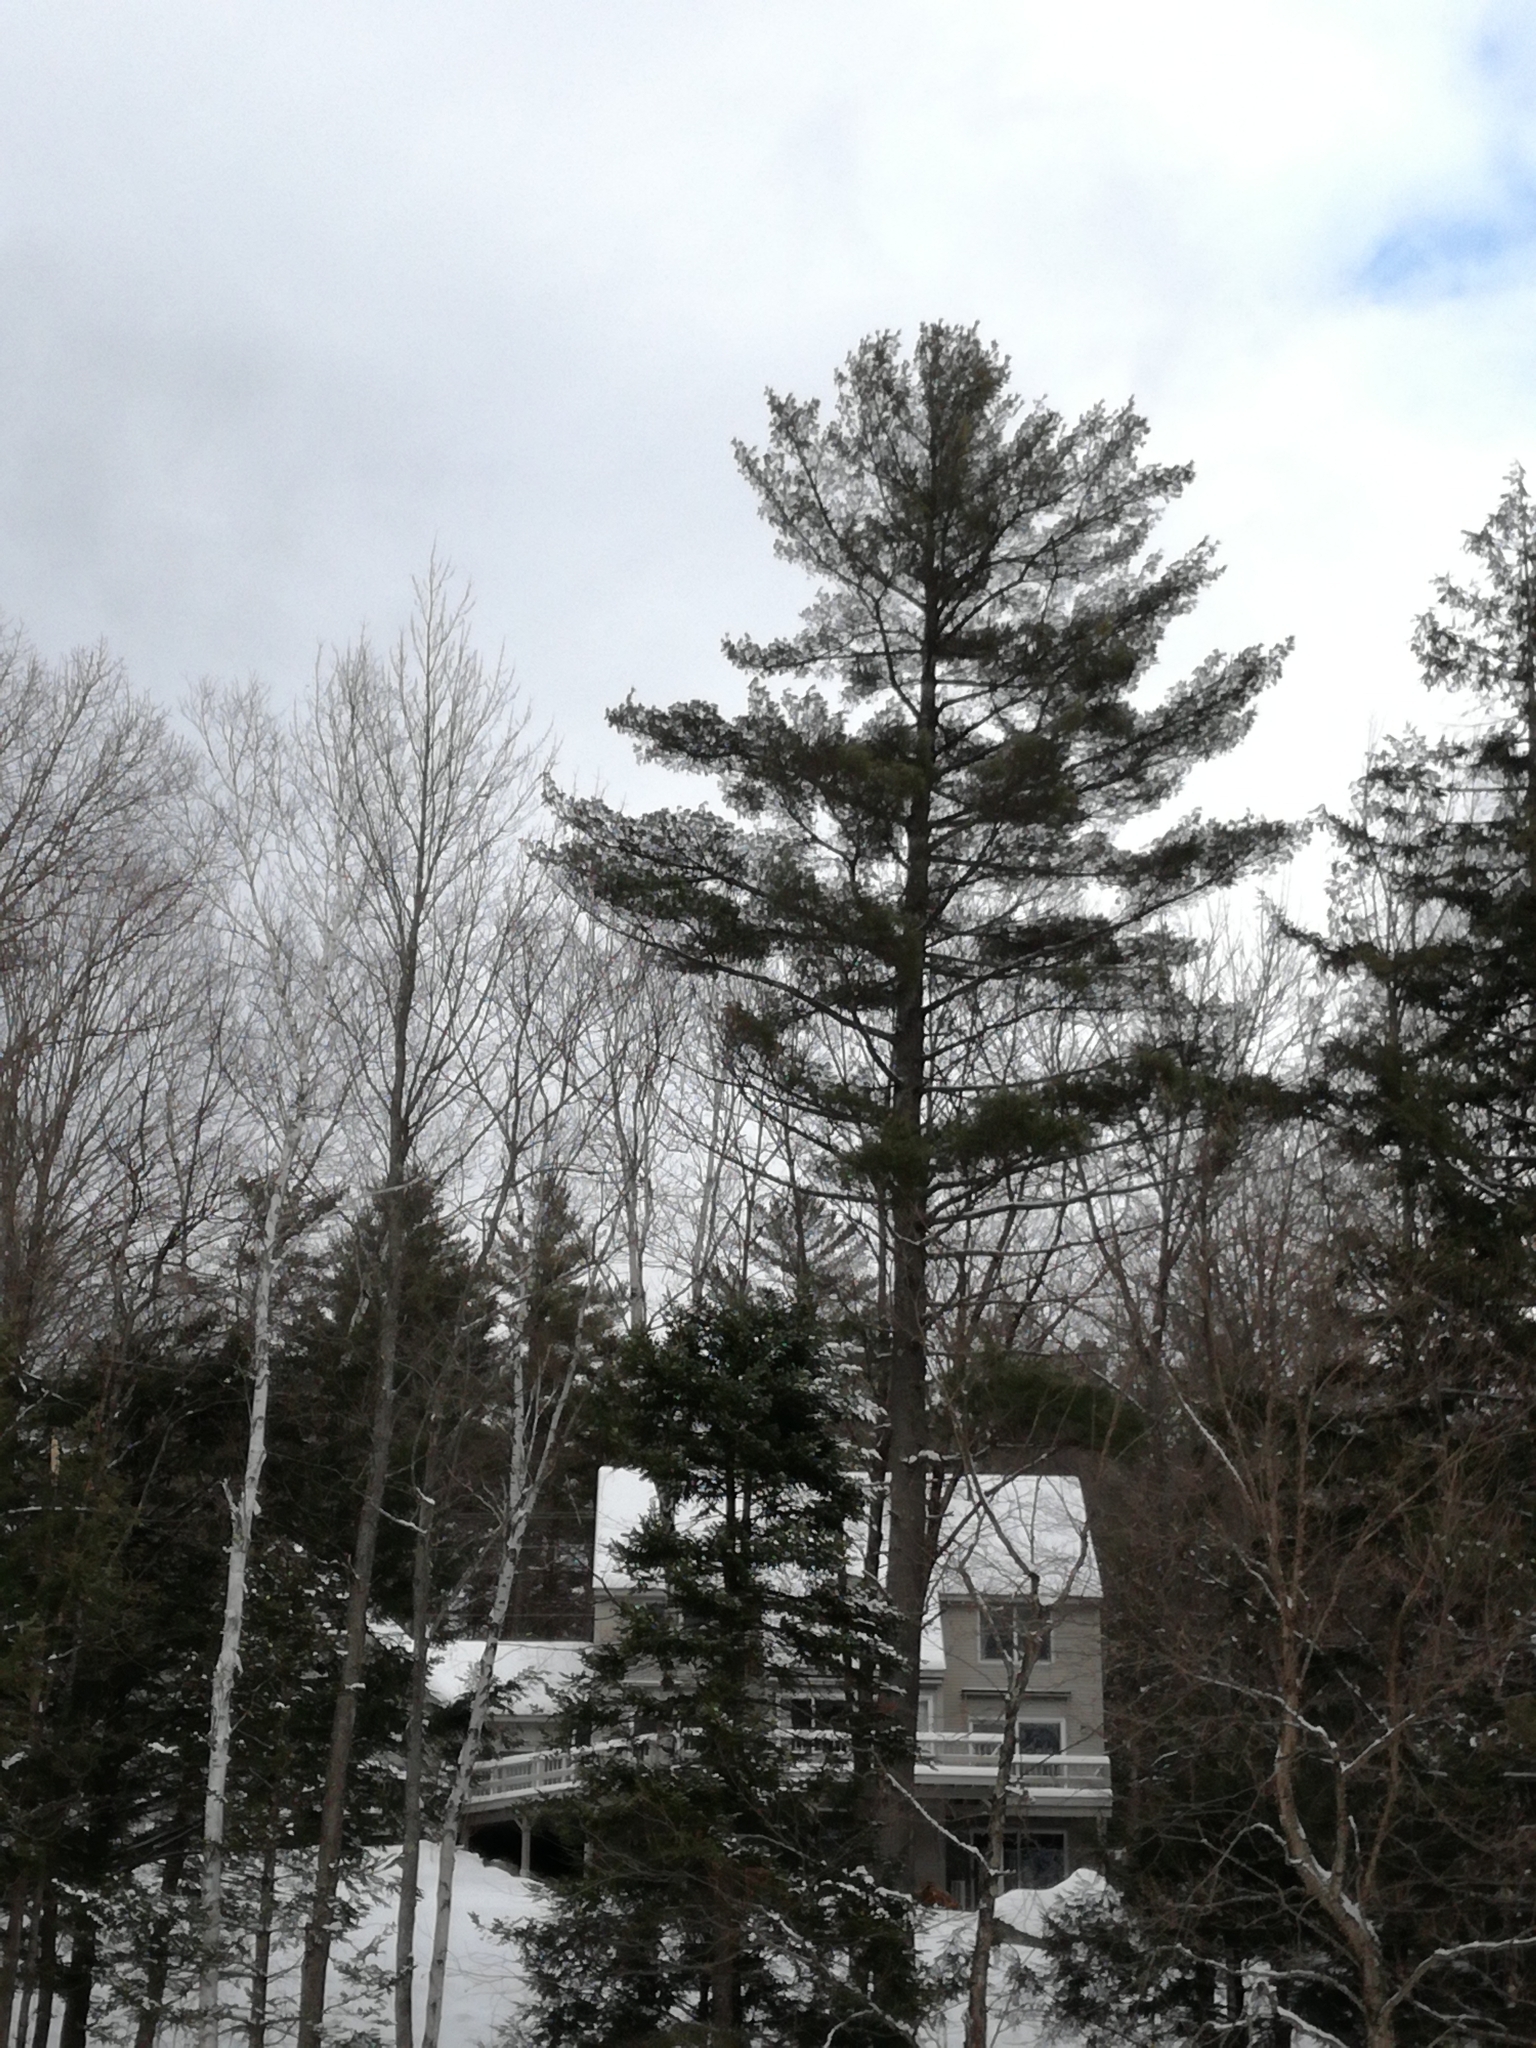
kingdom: Plantae
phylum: Tracheophyta
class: Pinopsida
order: Pinales
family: Pinaceae
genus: Pinus
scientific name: Pinus strobus
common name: Weymouth pine
